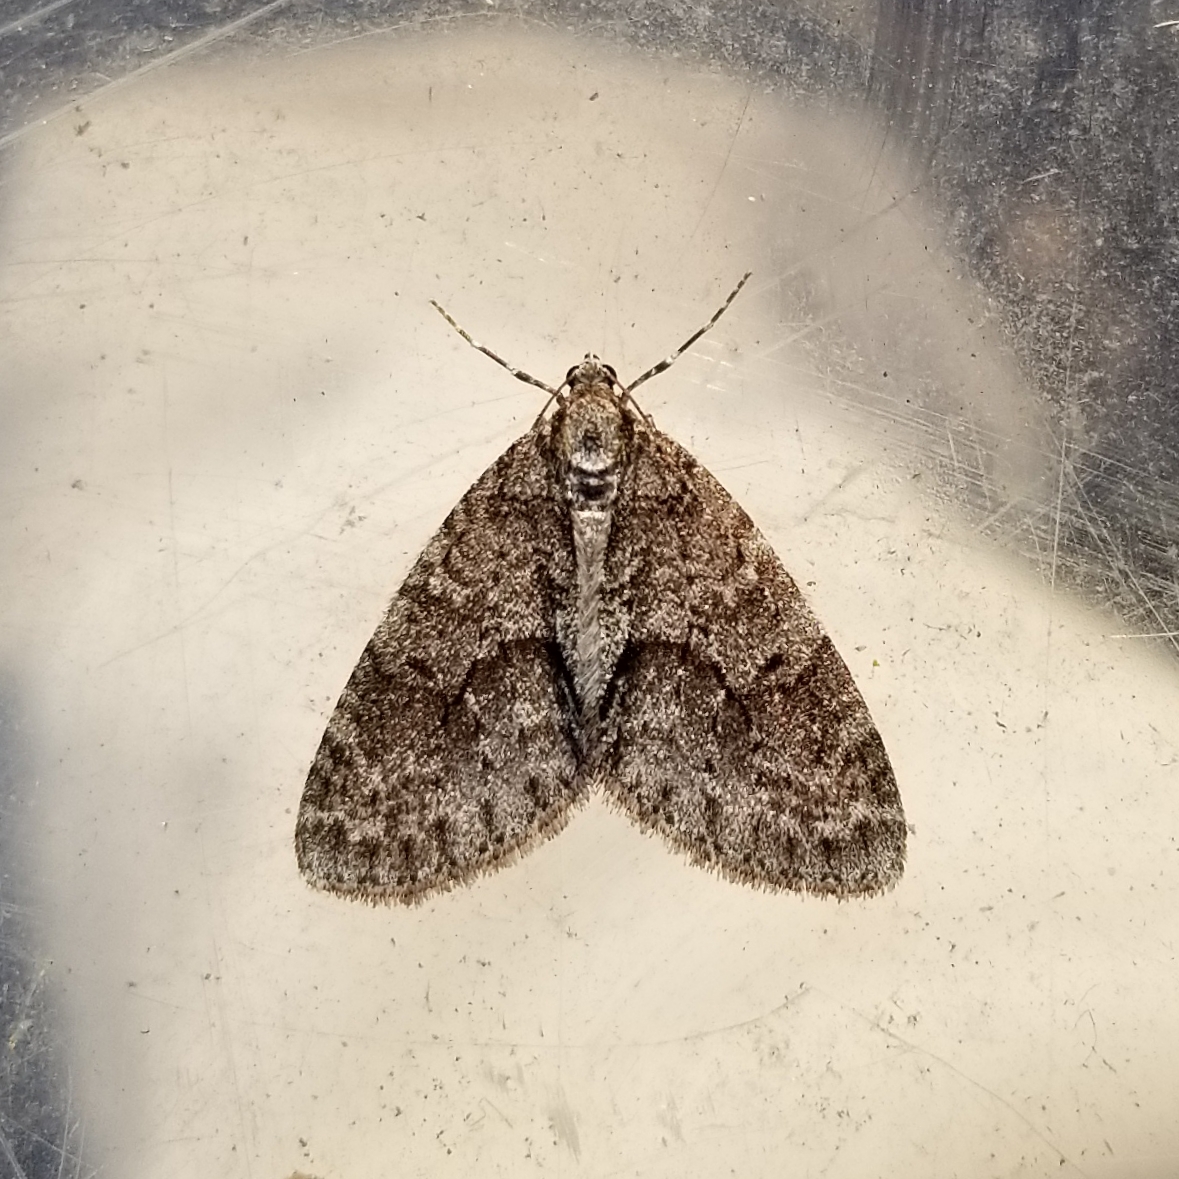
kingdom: Animalia
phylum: Arthropoda
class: Insecta
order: Lepidoptera
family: Geometridae
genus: Cladara
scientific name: Cladara limitaria
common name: Mottled gray carpet
